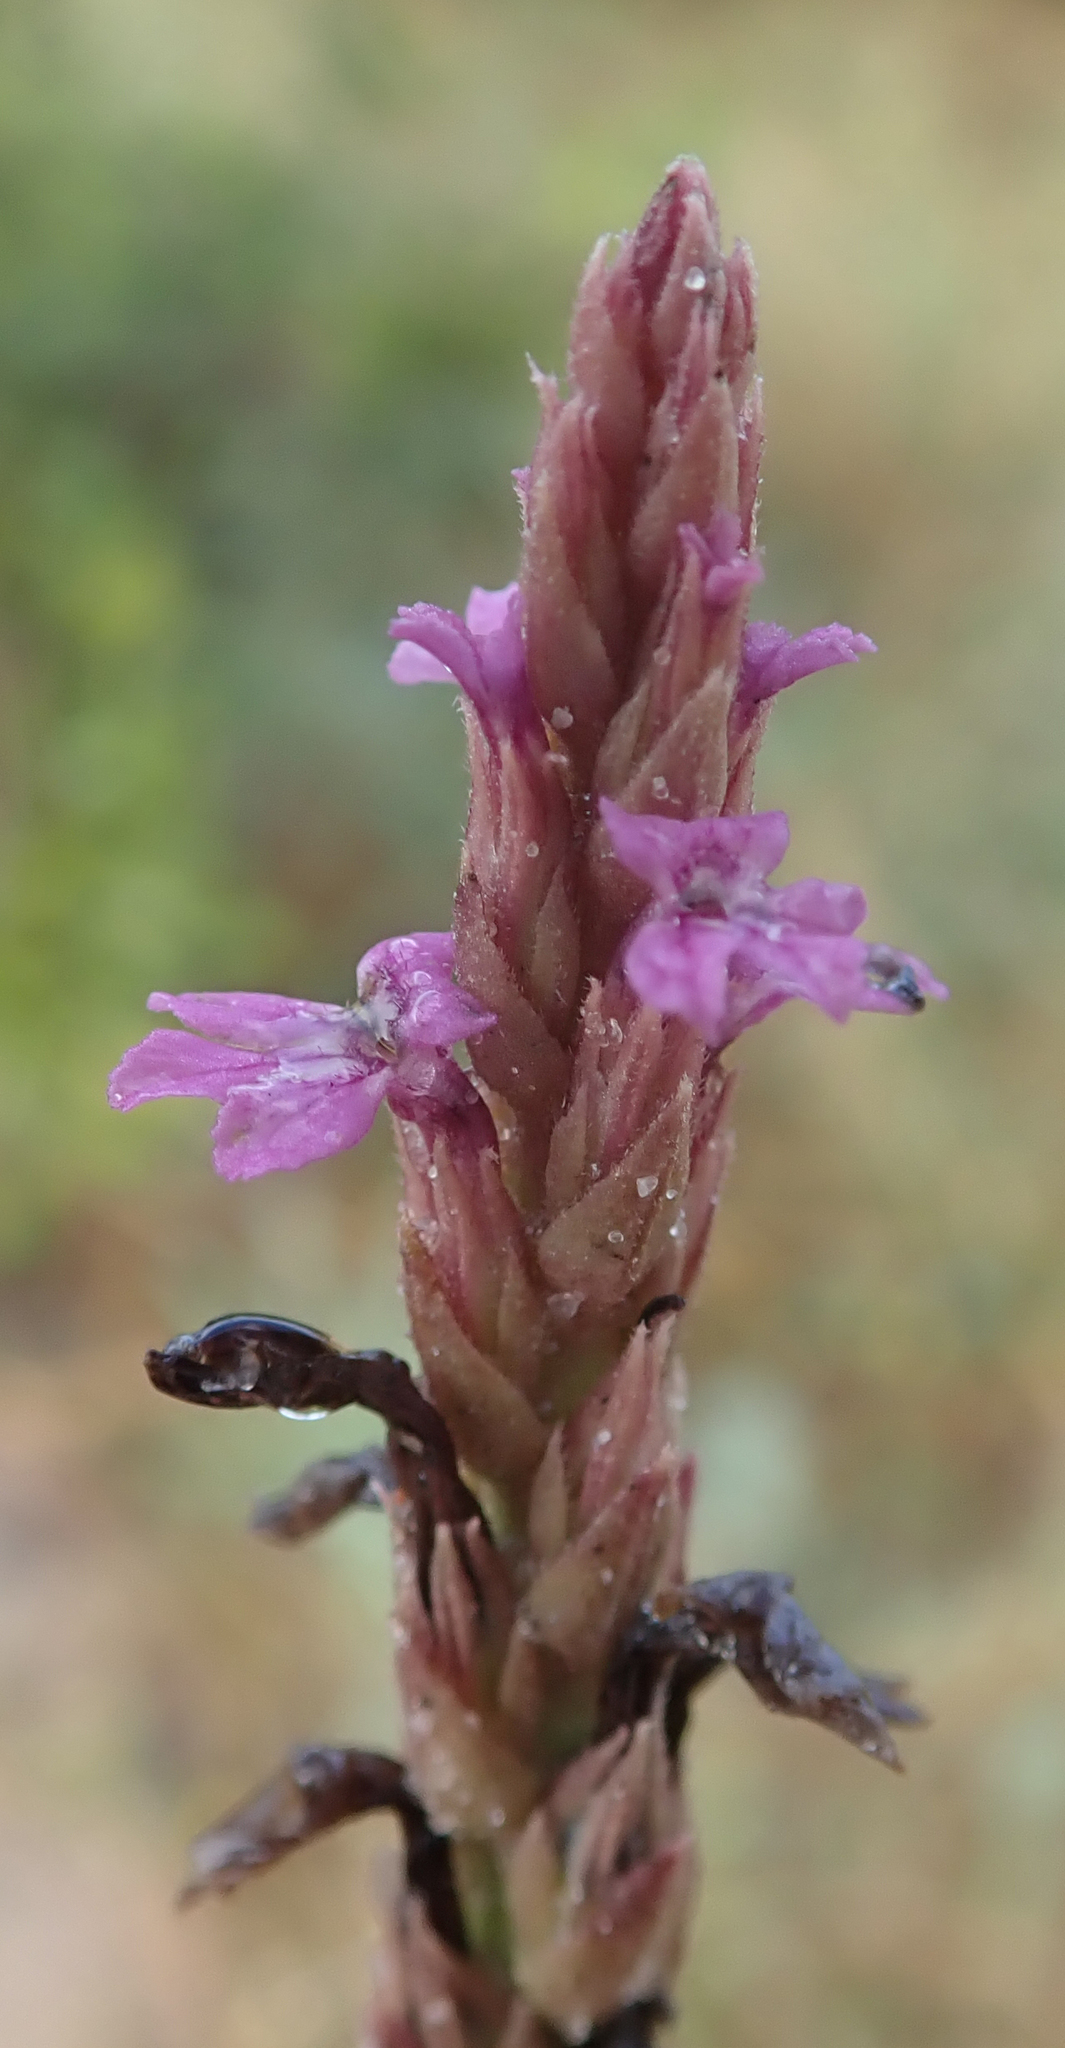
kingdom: Plantae
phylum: Tracheophyta
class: Magnoliopsida
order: Lamiales
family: Orobanchaceae
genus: Striga
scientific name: Striga bilabiata
